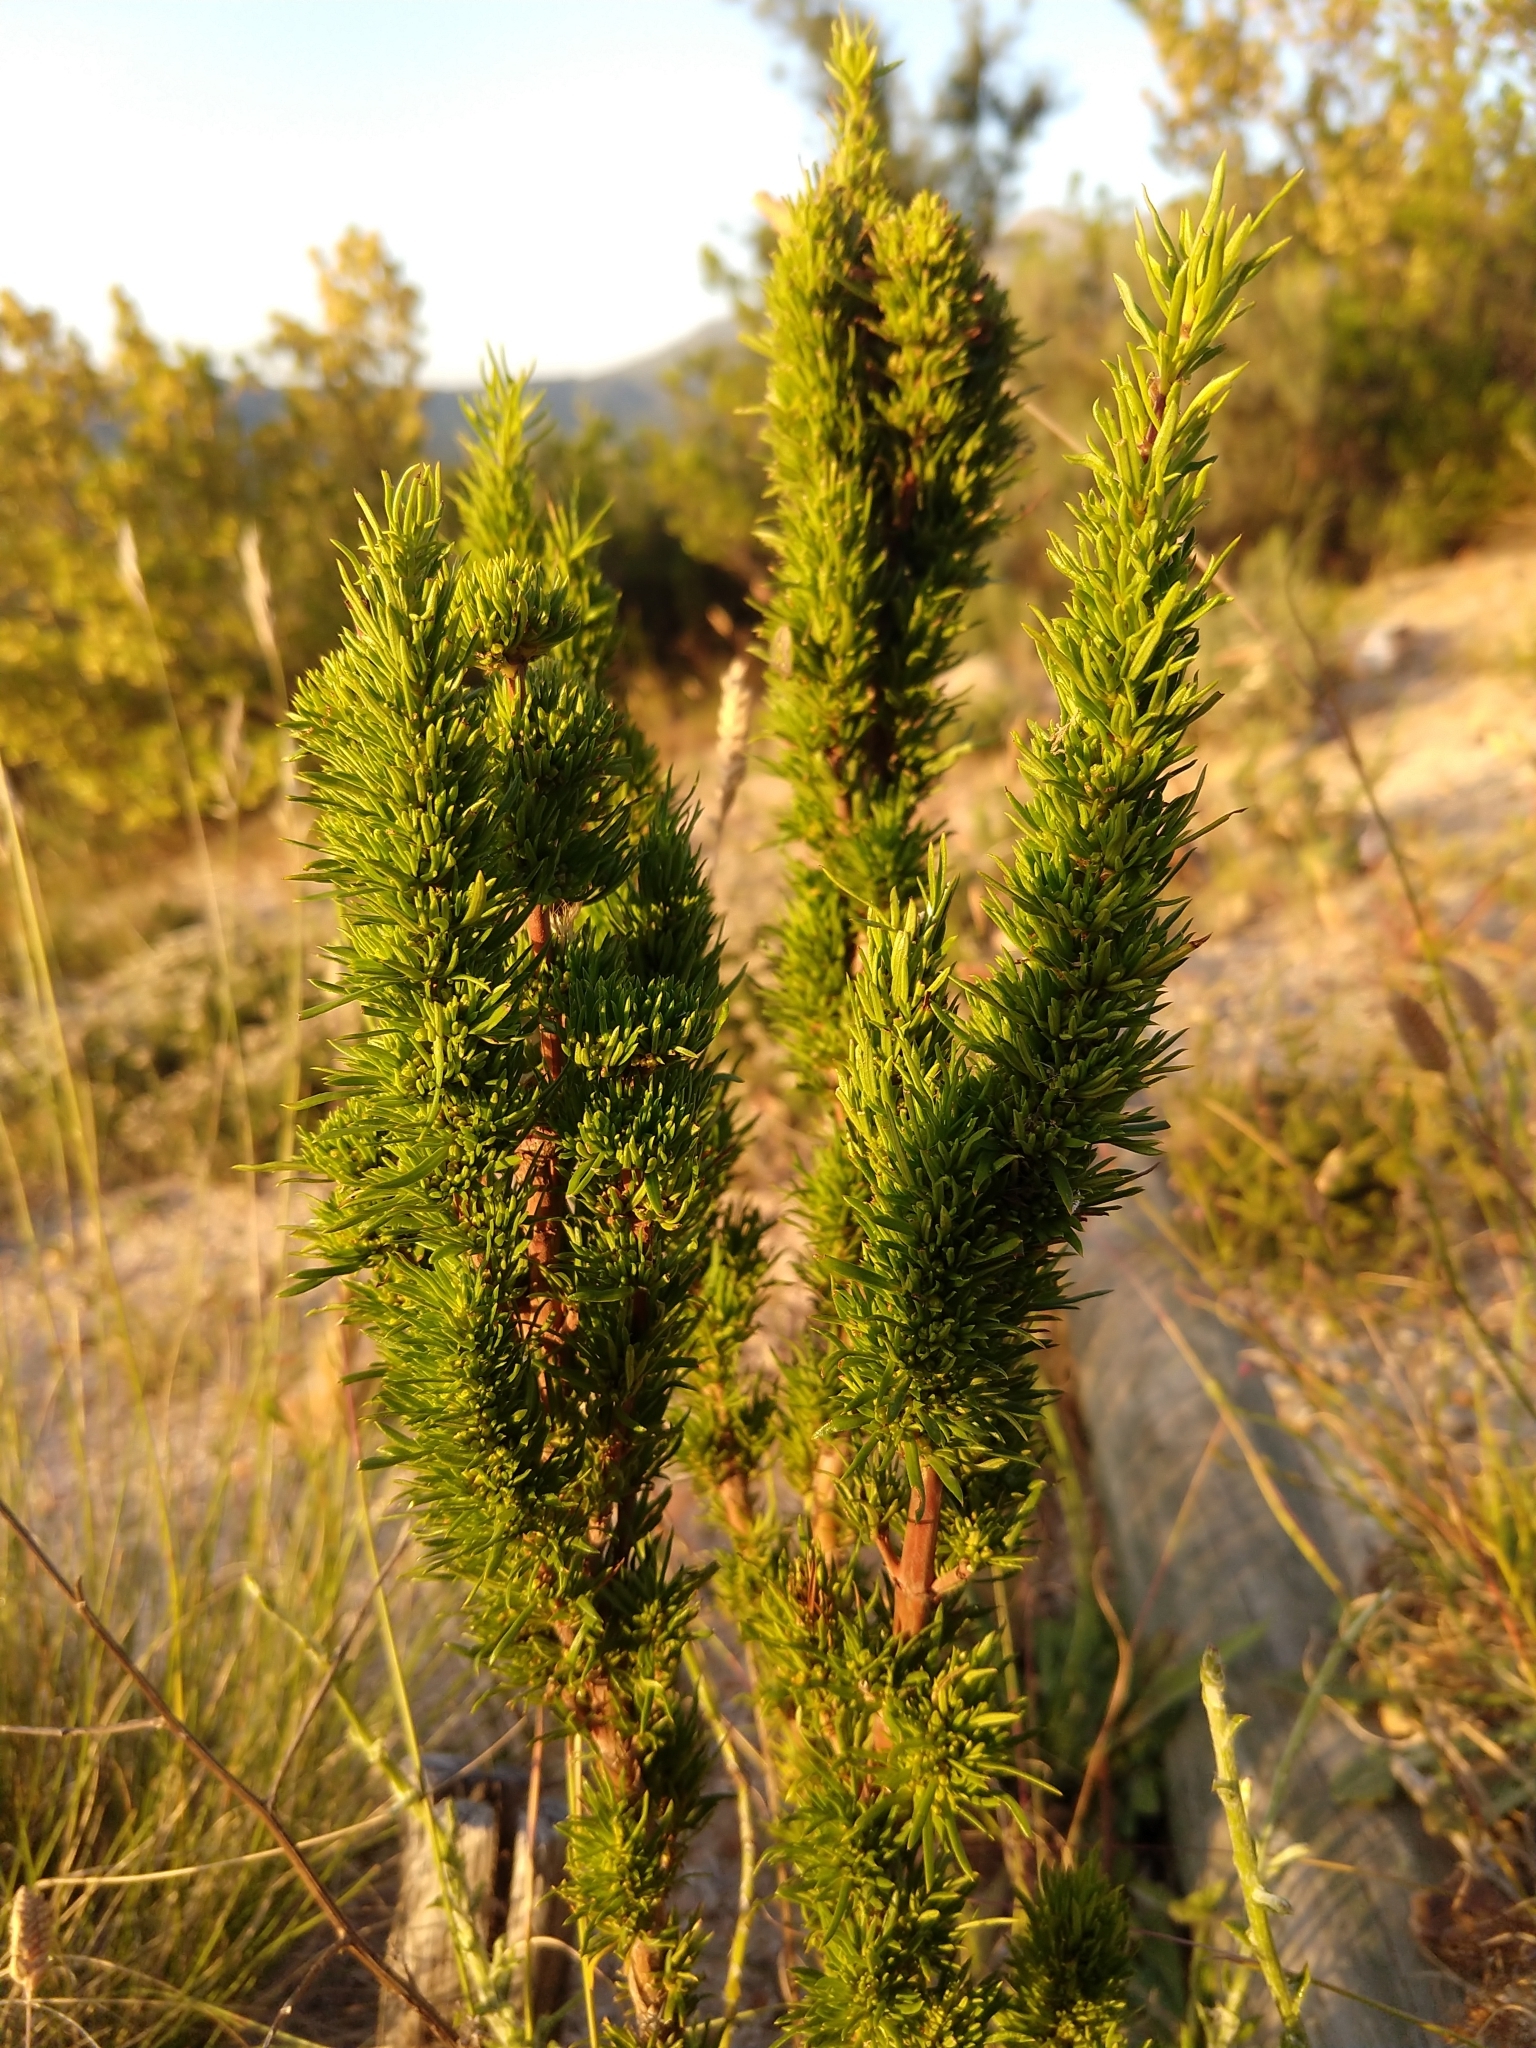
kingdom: Plantae
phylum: Tracheophyta
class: Magnoliopsida
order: Gentianales
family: Rubiaceae
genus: Anthospermum
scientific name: Anthospermum aethiopicum
